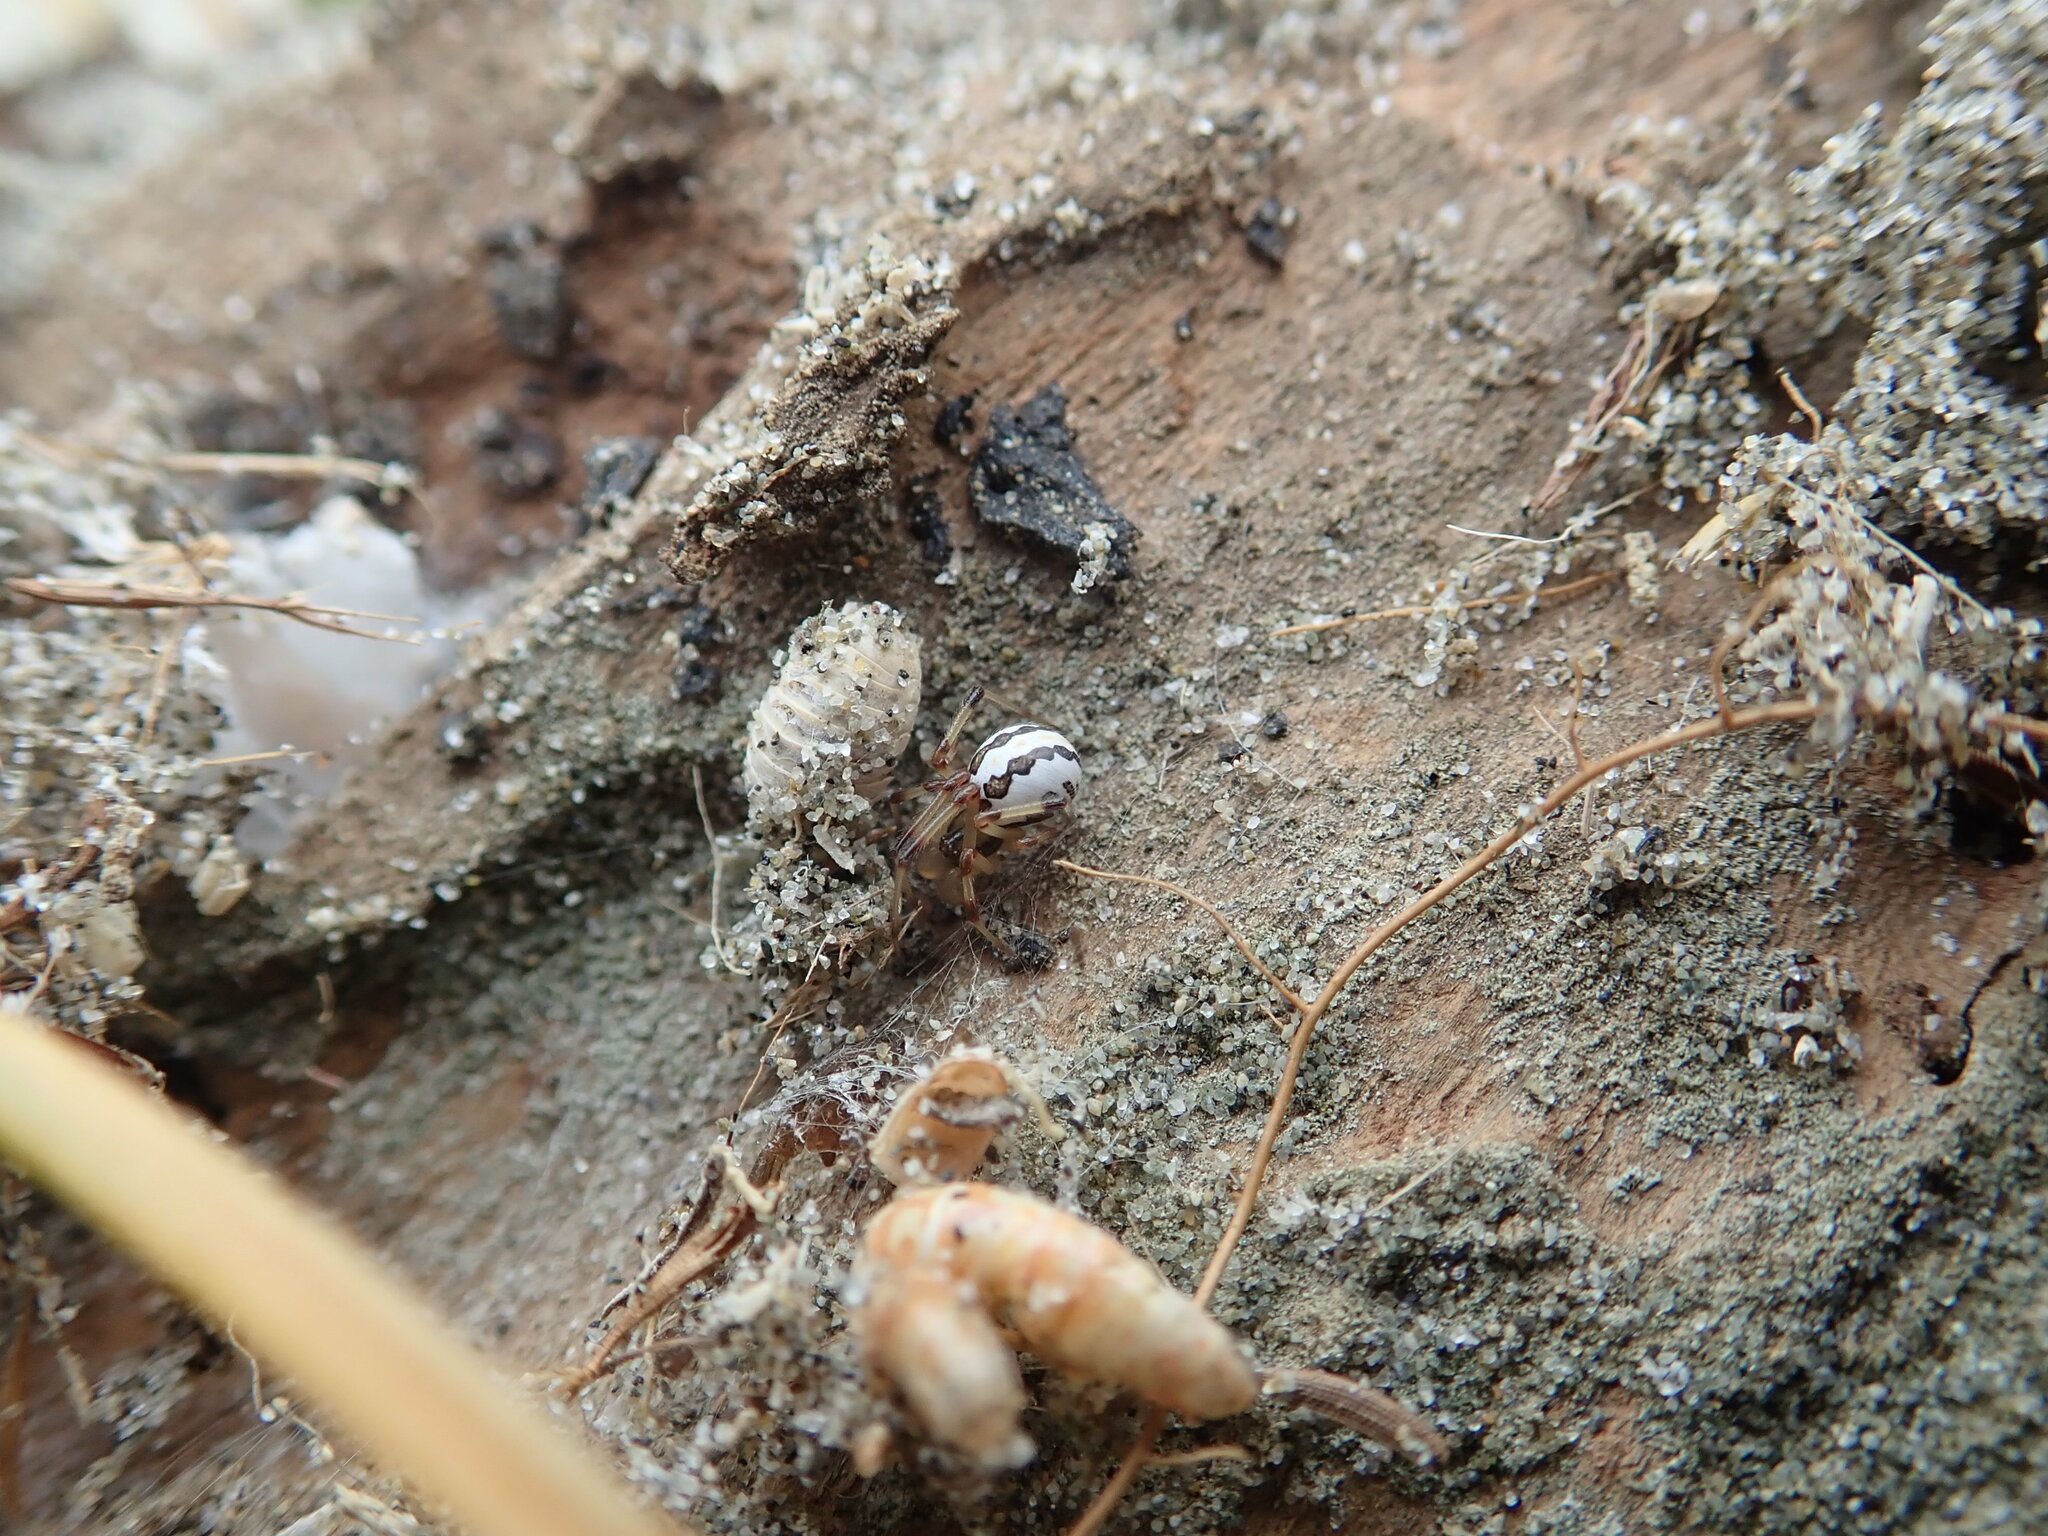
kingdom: Animalia
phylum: Arthropoda
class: Arachnida
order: Araneae
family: Theridiidae
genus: Latrodectus
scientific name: Latrodectus katipo
